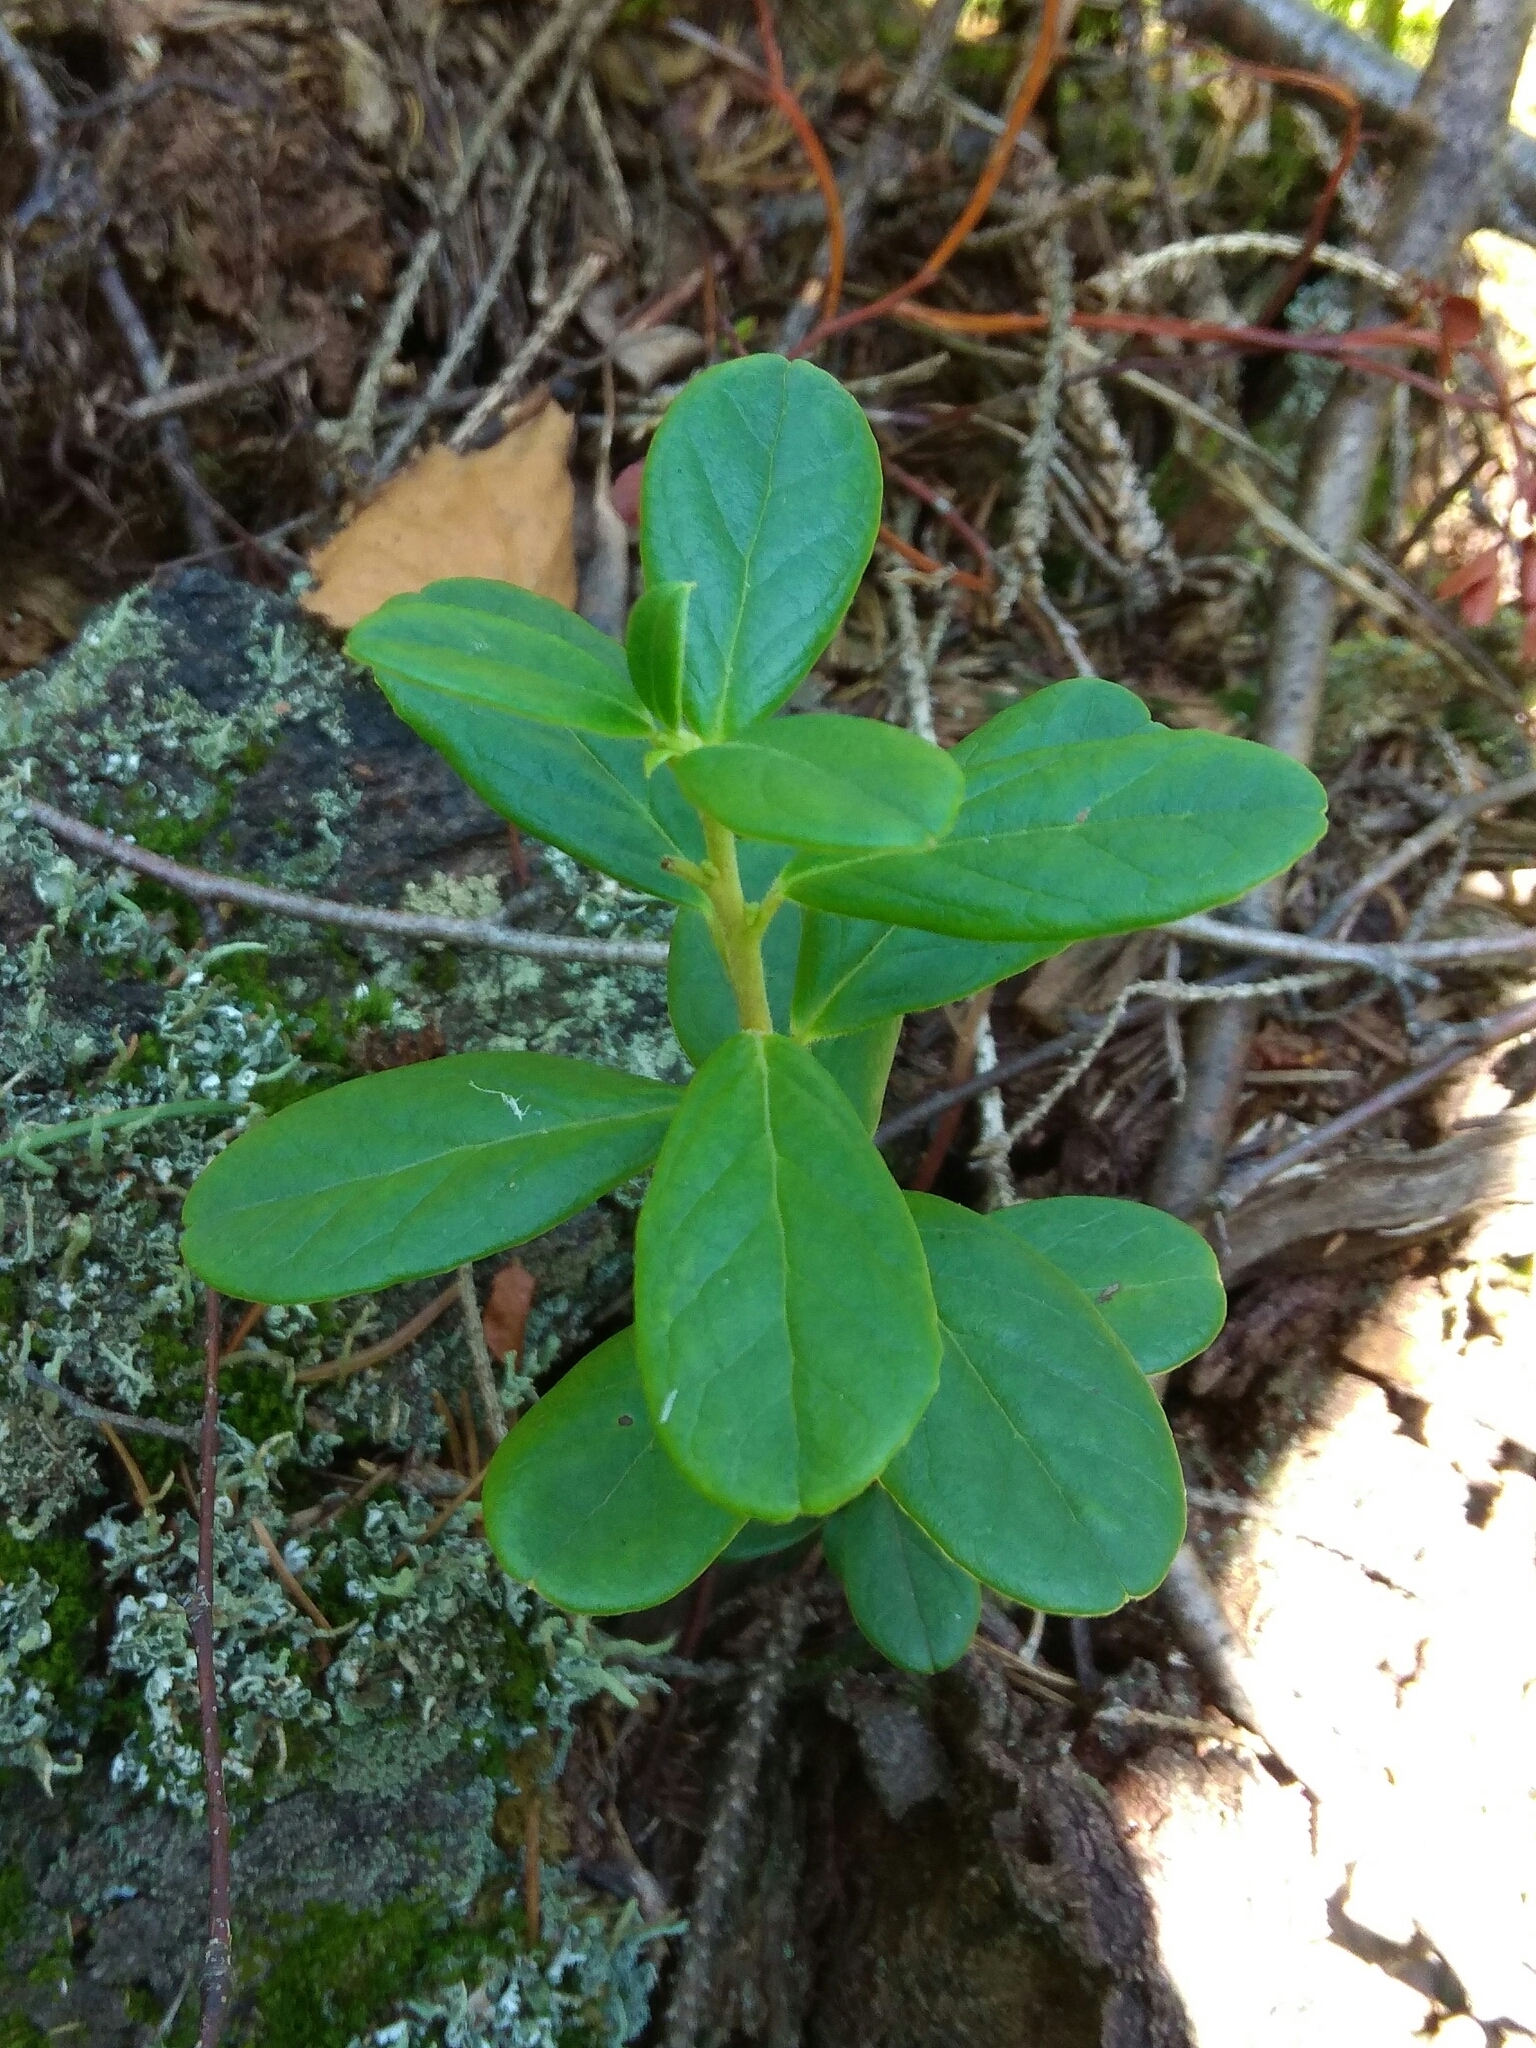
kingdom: Plantae
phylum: Tracheophyta
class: Magnoliopsida
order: Ericales
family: Ericaceae
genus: Vaccinium
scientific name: Vaccinium vitis-idaea
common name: Cowberry
